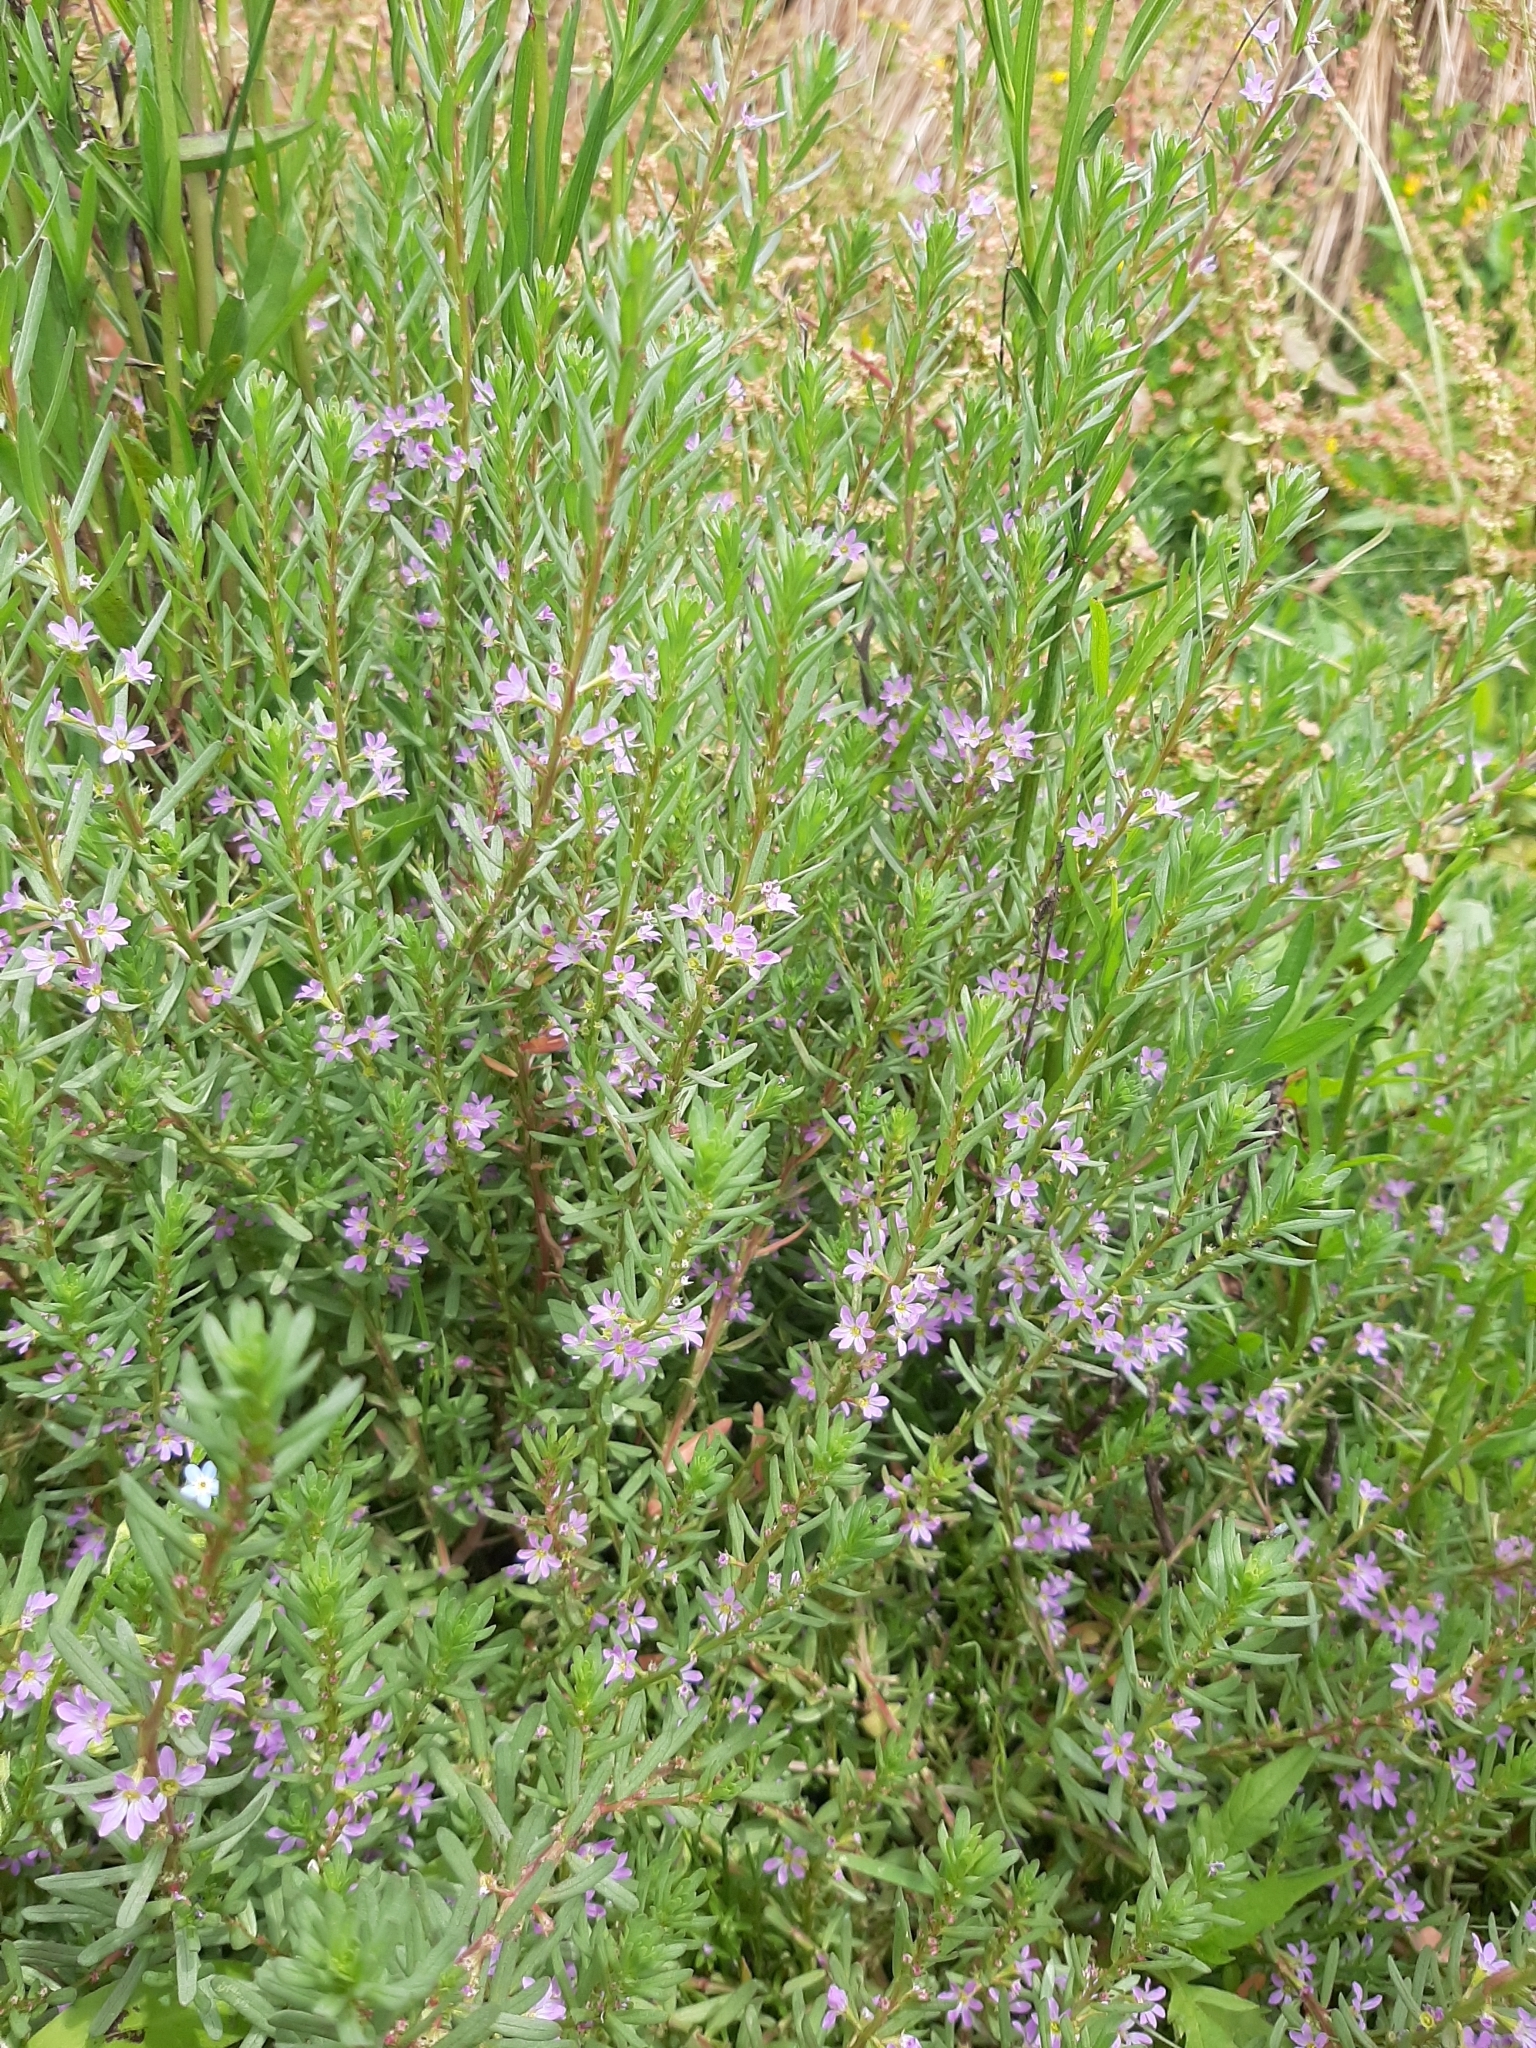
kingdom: Plantae
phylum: Tracheophyta
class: Magnoliopsida
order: Myrtales
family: Lythraceae
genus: Lythrum
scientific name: Lythrum hyssopifolia
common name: Grass-poly
